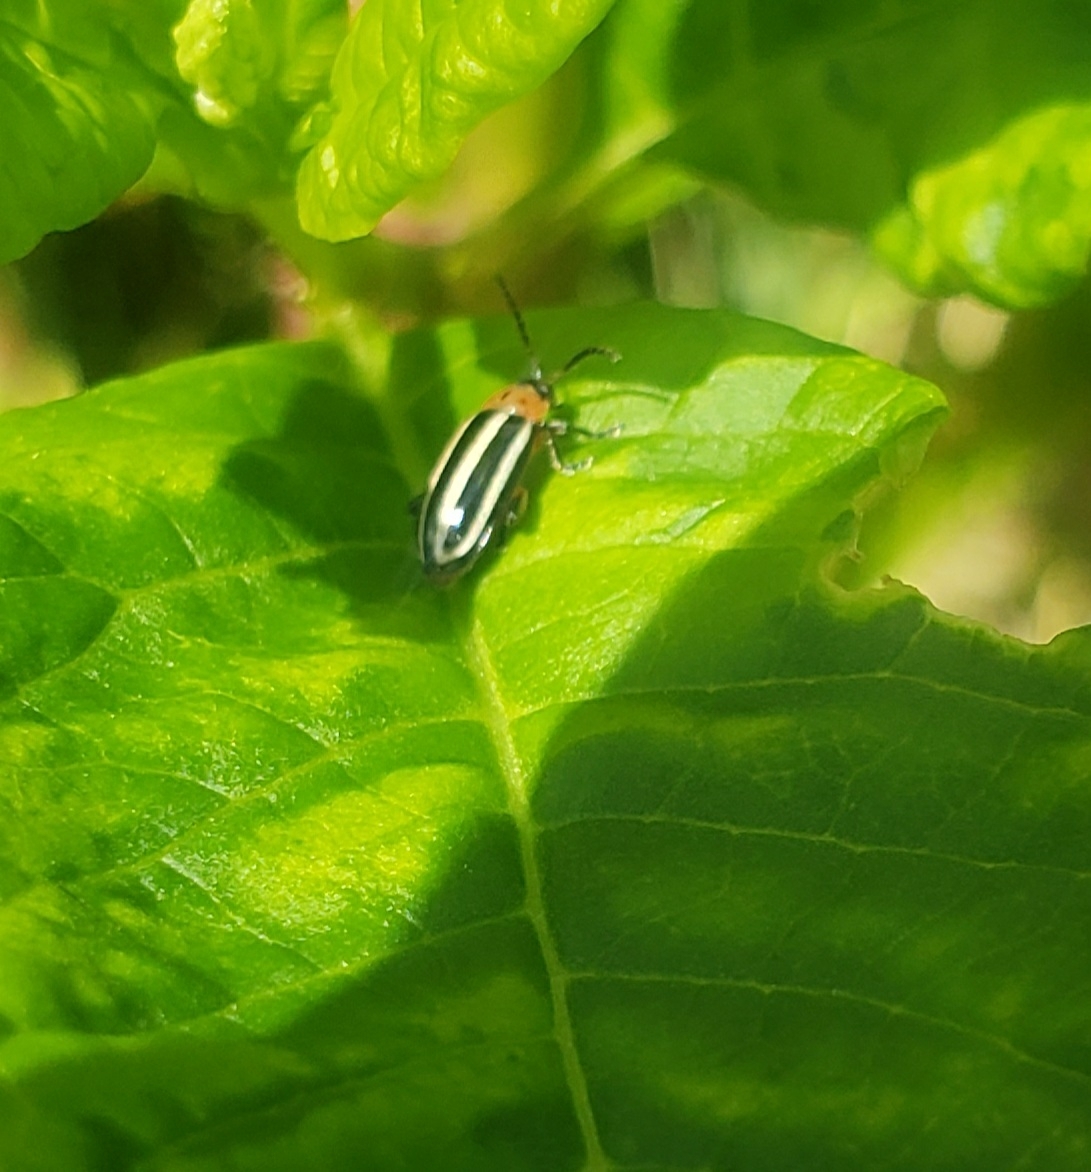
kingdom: Animalia
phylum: Arthropoda
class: Insecta
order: Coleoptera
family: Chrysomelidae
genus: Disonycha
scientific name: Disonycha glabrata
